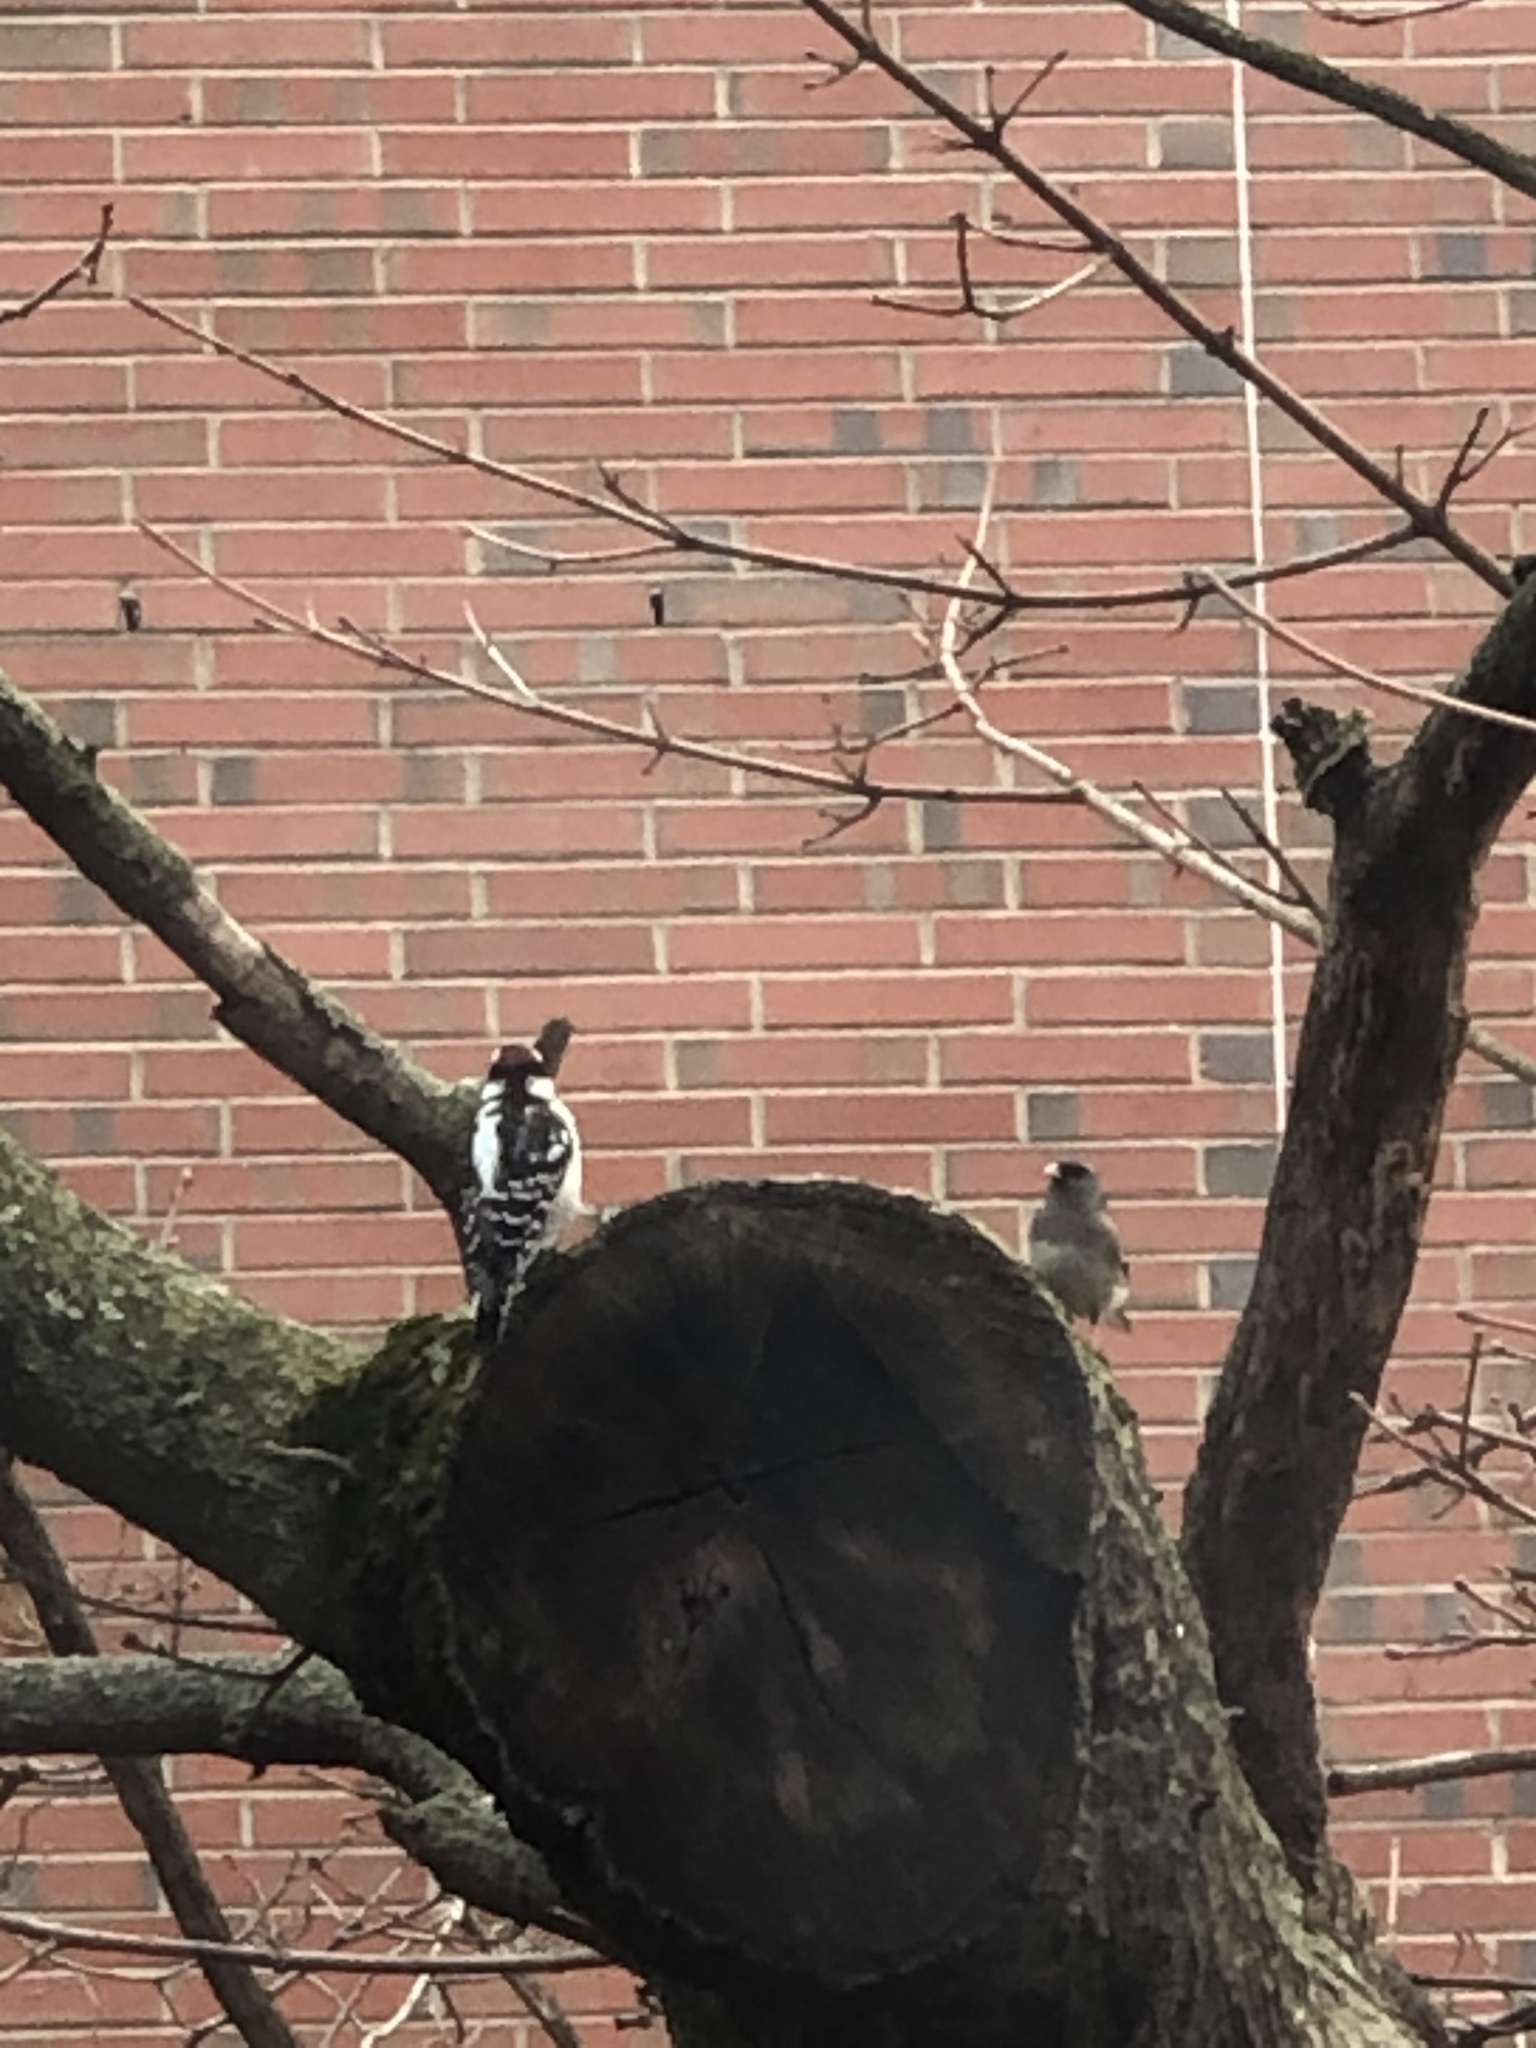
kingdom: Animalia
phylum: Chordata
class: Aves
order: Piciformes
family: Picidae
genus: Dryobates
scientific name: Dryobates pubescens
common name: Downy woodpecker
